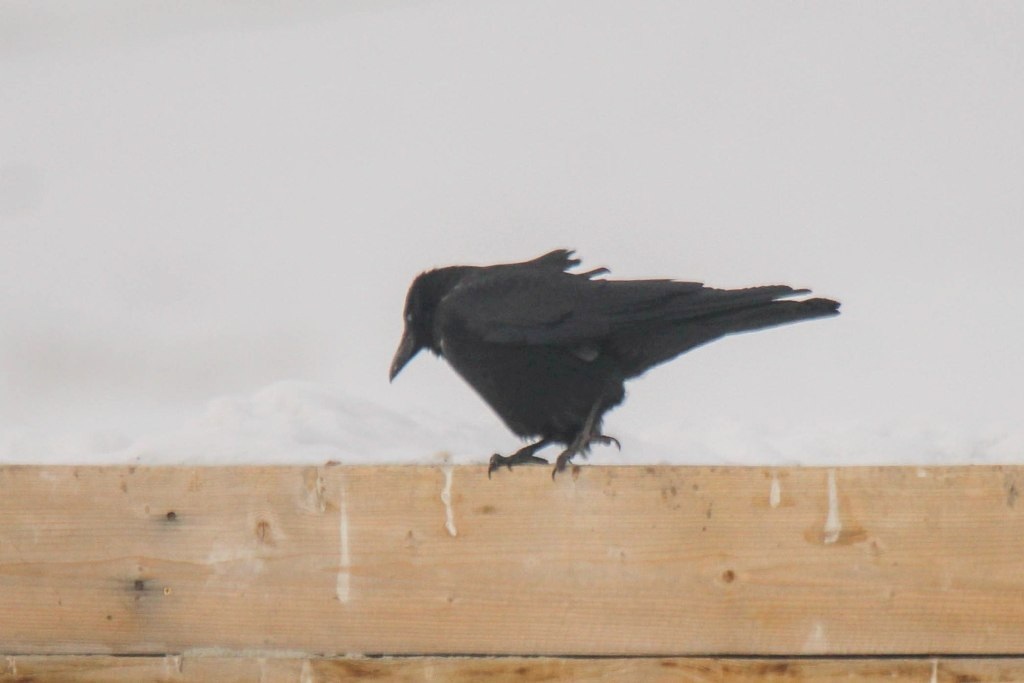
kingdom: Animalia
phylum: Chordata
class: Aves
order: Passeriformes
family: Corvidae
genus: Corvus
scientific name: Corvus corone
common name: Carrion crow
